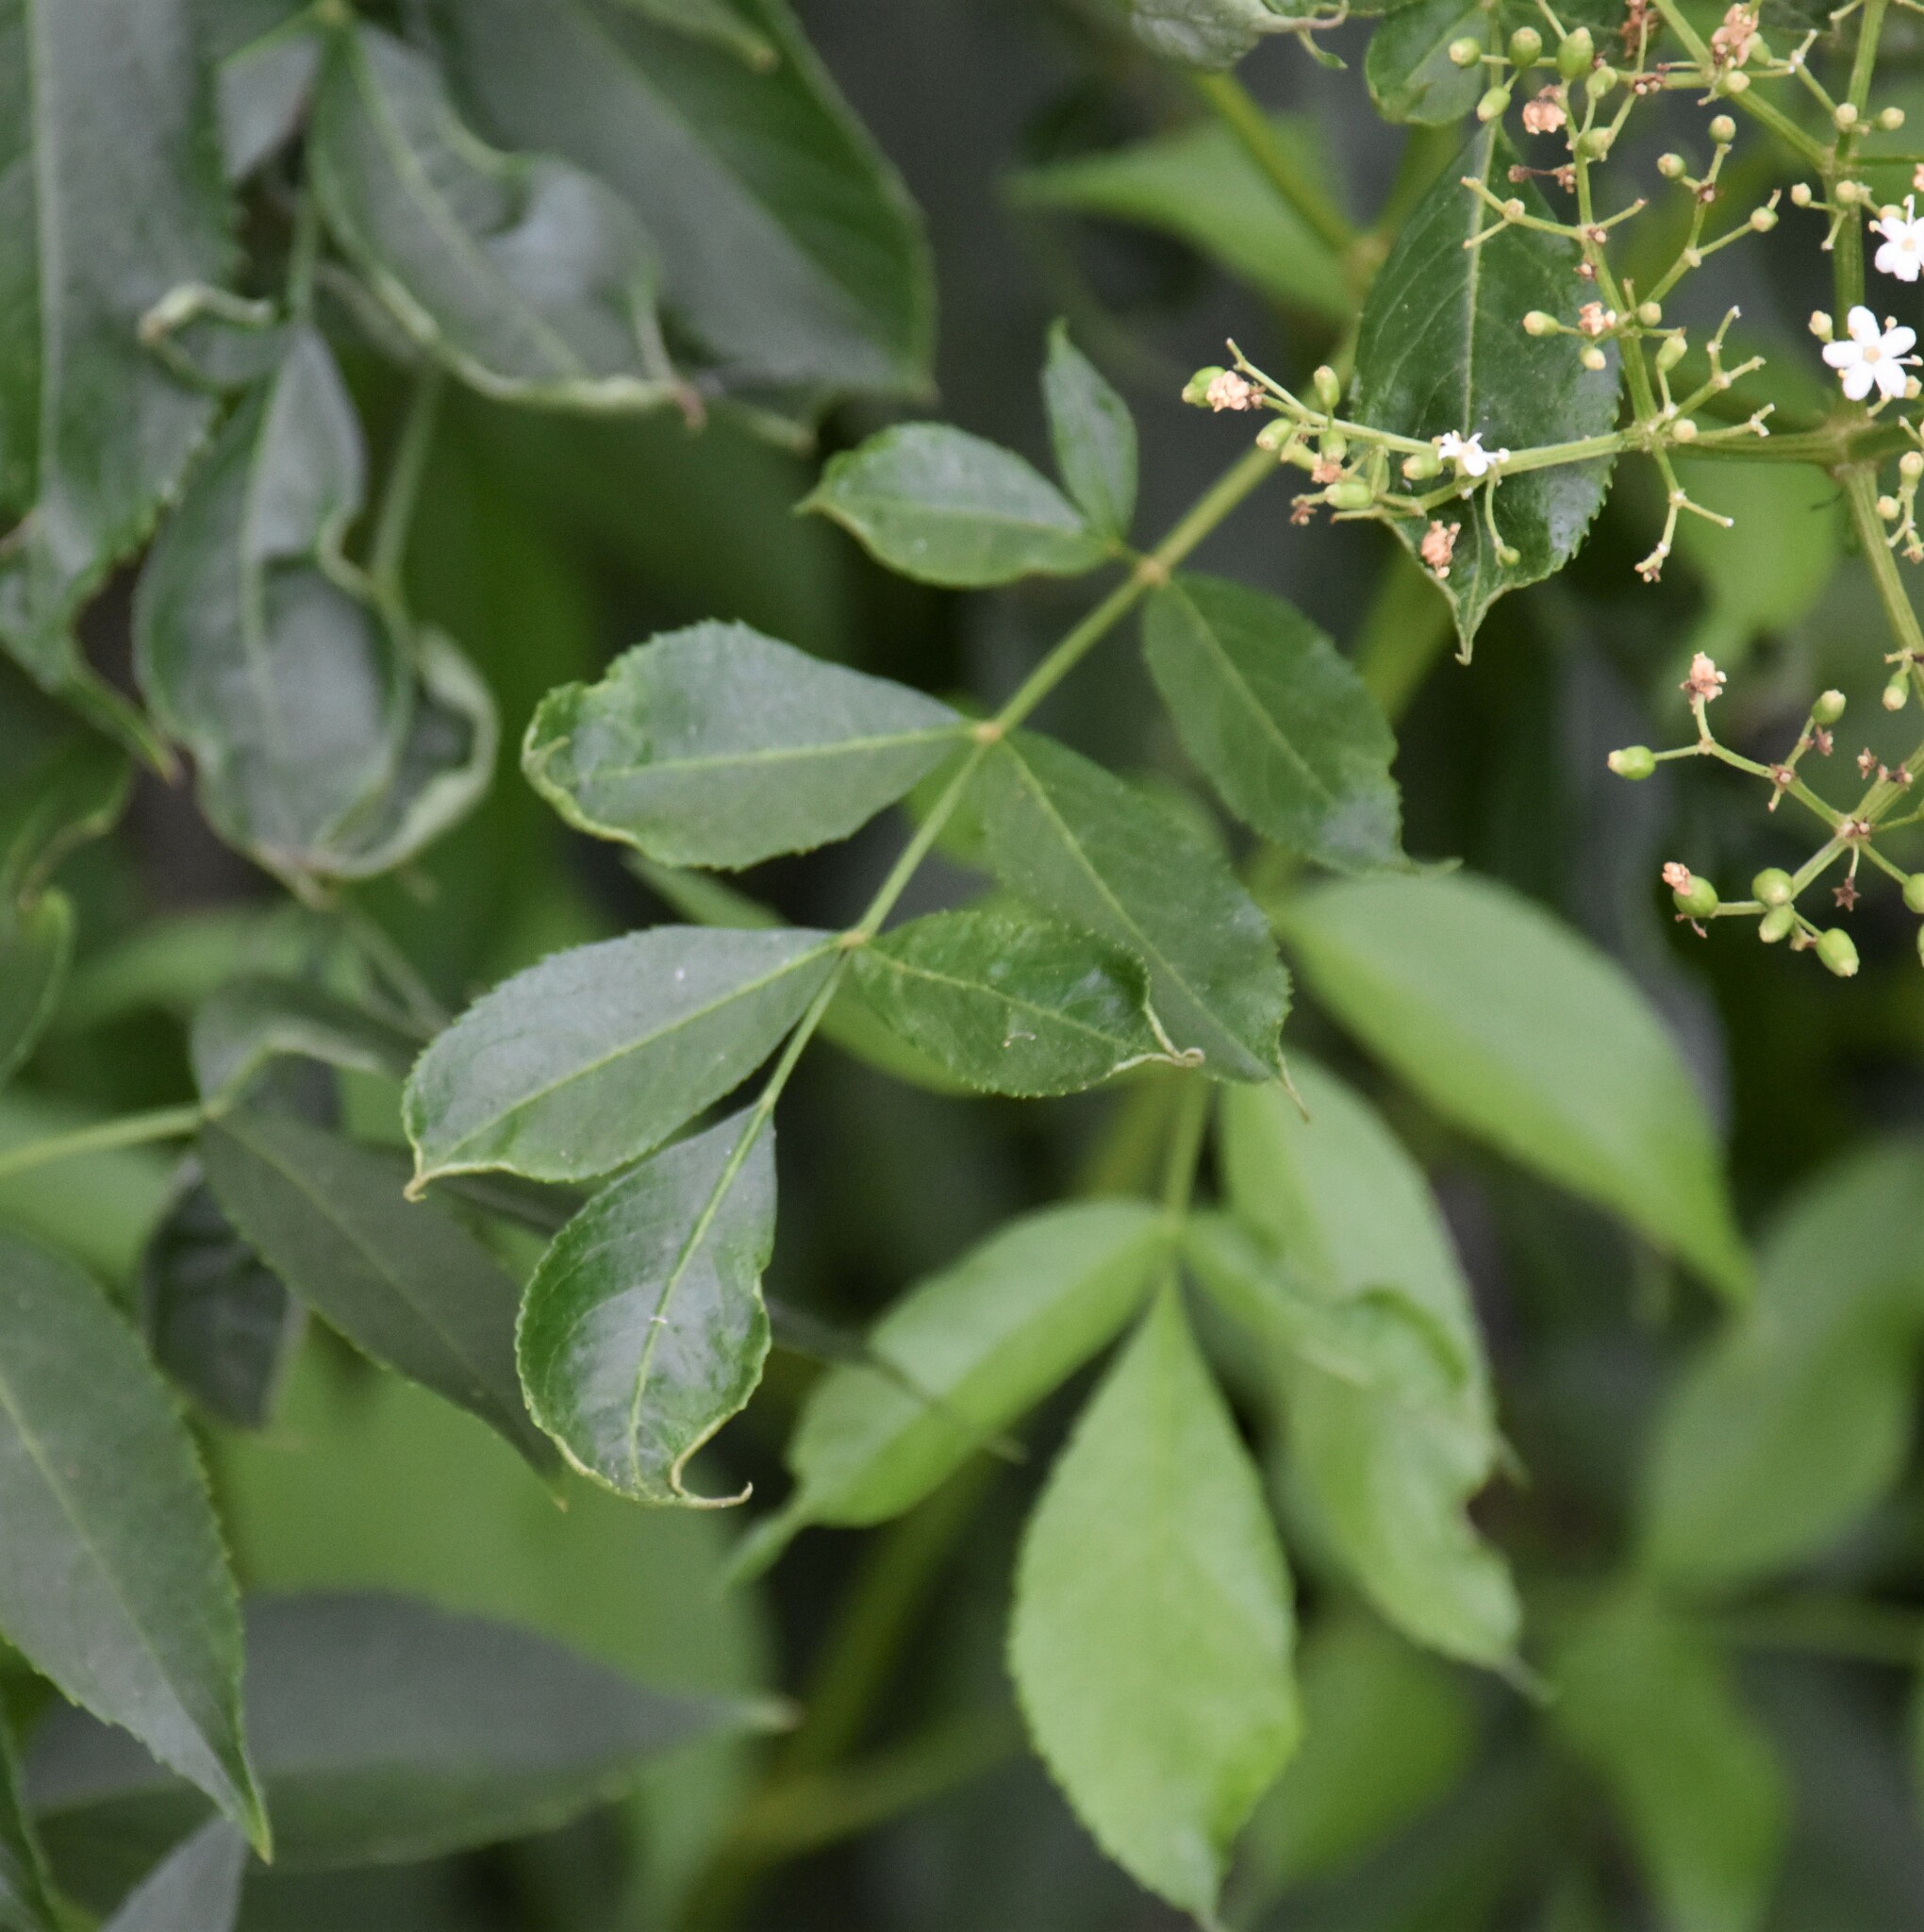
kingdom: Plantae
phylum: Tracheophyta
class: Magnoliopsida
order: Dipsacales
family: Viburnaceae
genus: Sambucus
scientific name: Sambucus canadensis
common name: American elder
